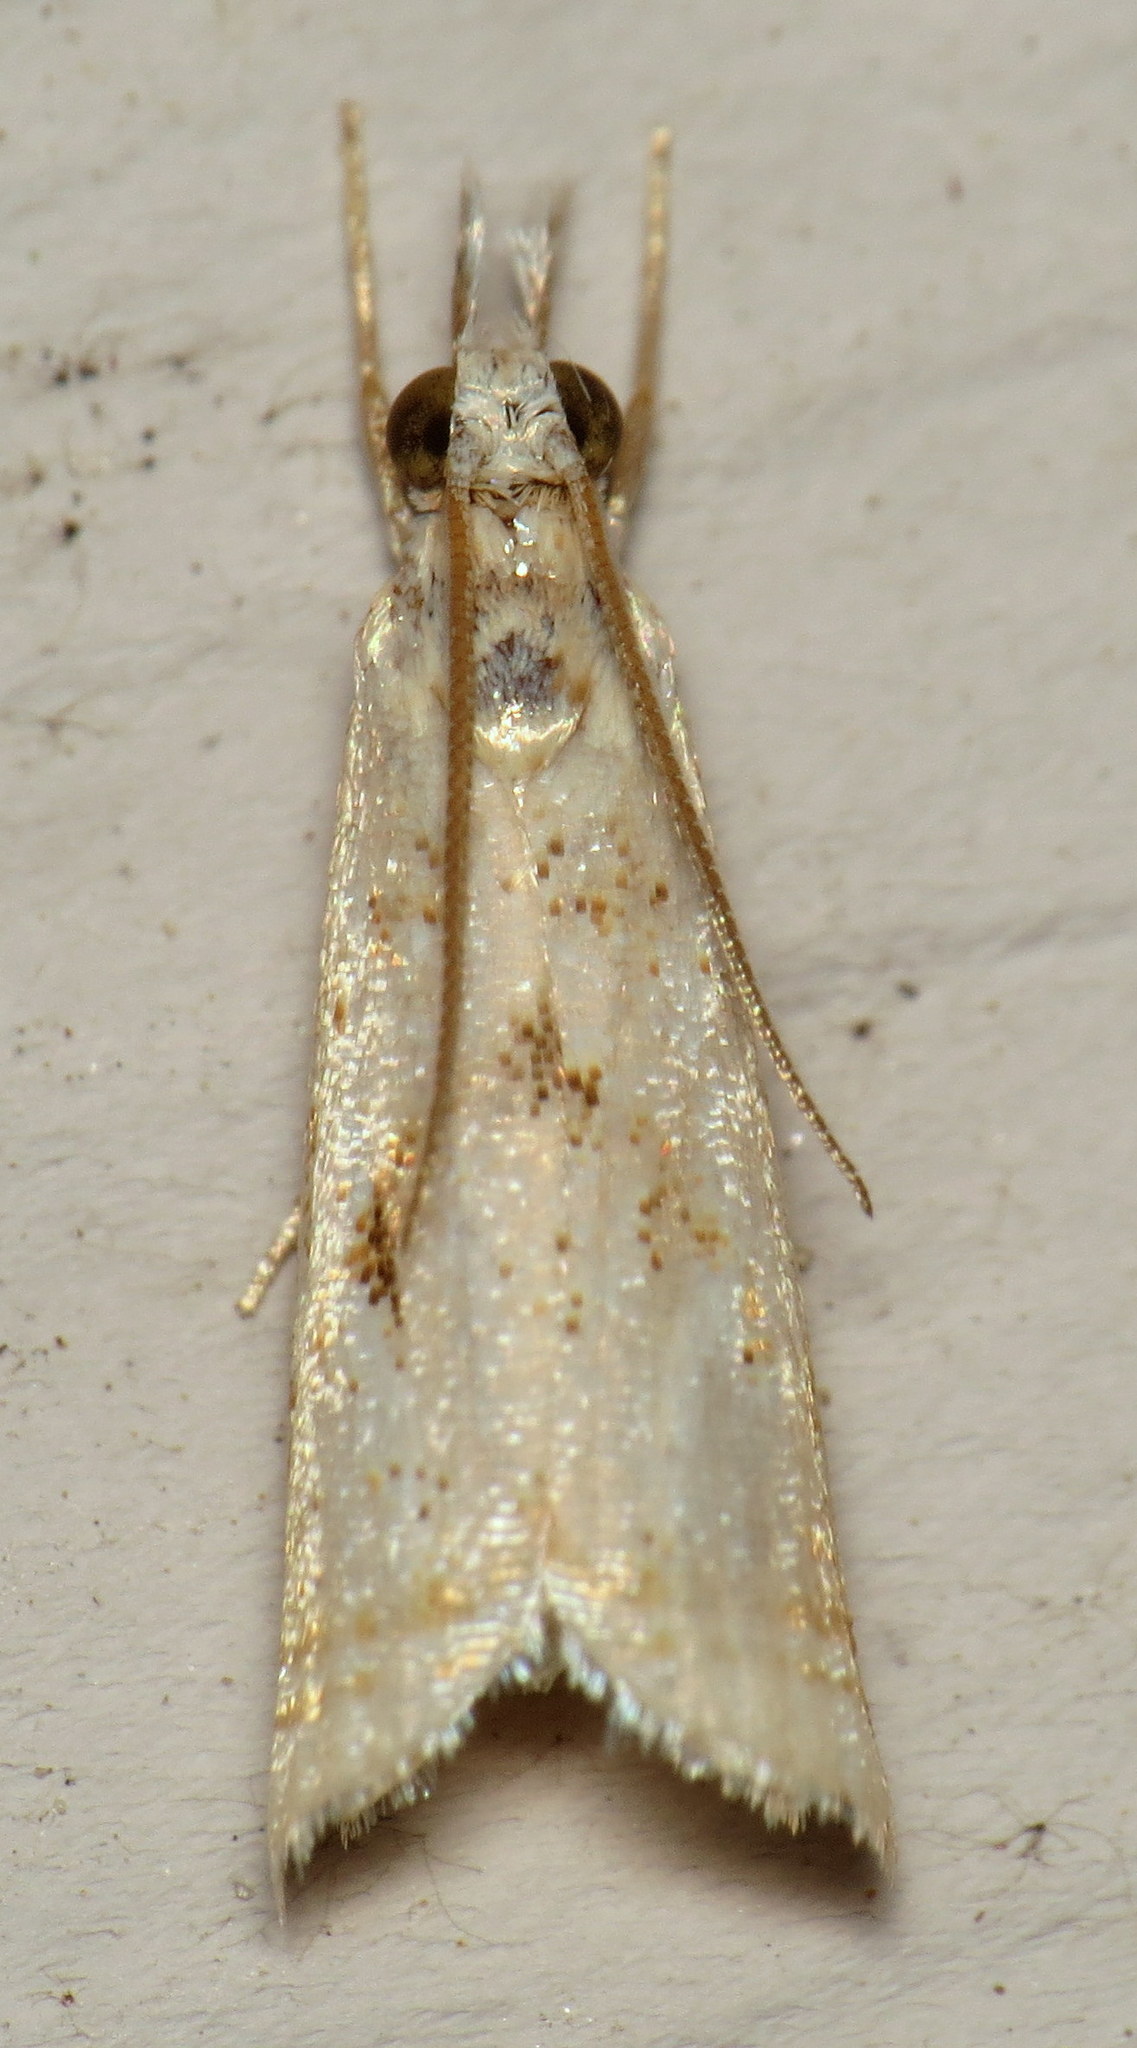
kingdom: Animalia
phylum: Arthropoda
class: Insecta
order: Lepidoptera
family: Crambidae
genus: Microcrambus
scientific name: Microcrambus elegans
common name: Elegant grass-veneer
